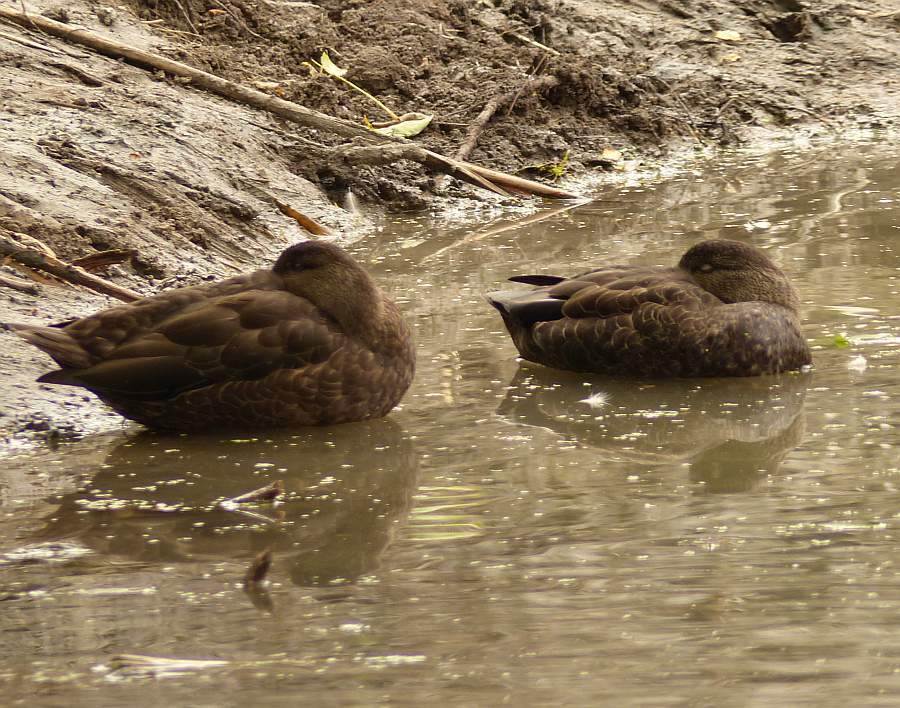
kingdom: Animalia
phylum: Chordata
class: Aves
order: Anseriformes
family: Anatidae
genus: Anas
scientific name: Anas rubripes
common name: American black duck
